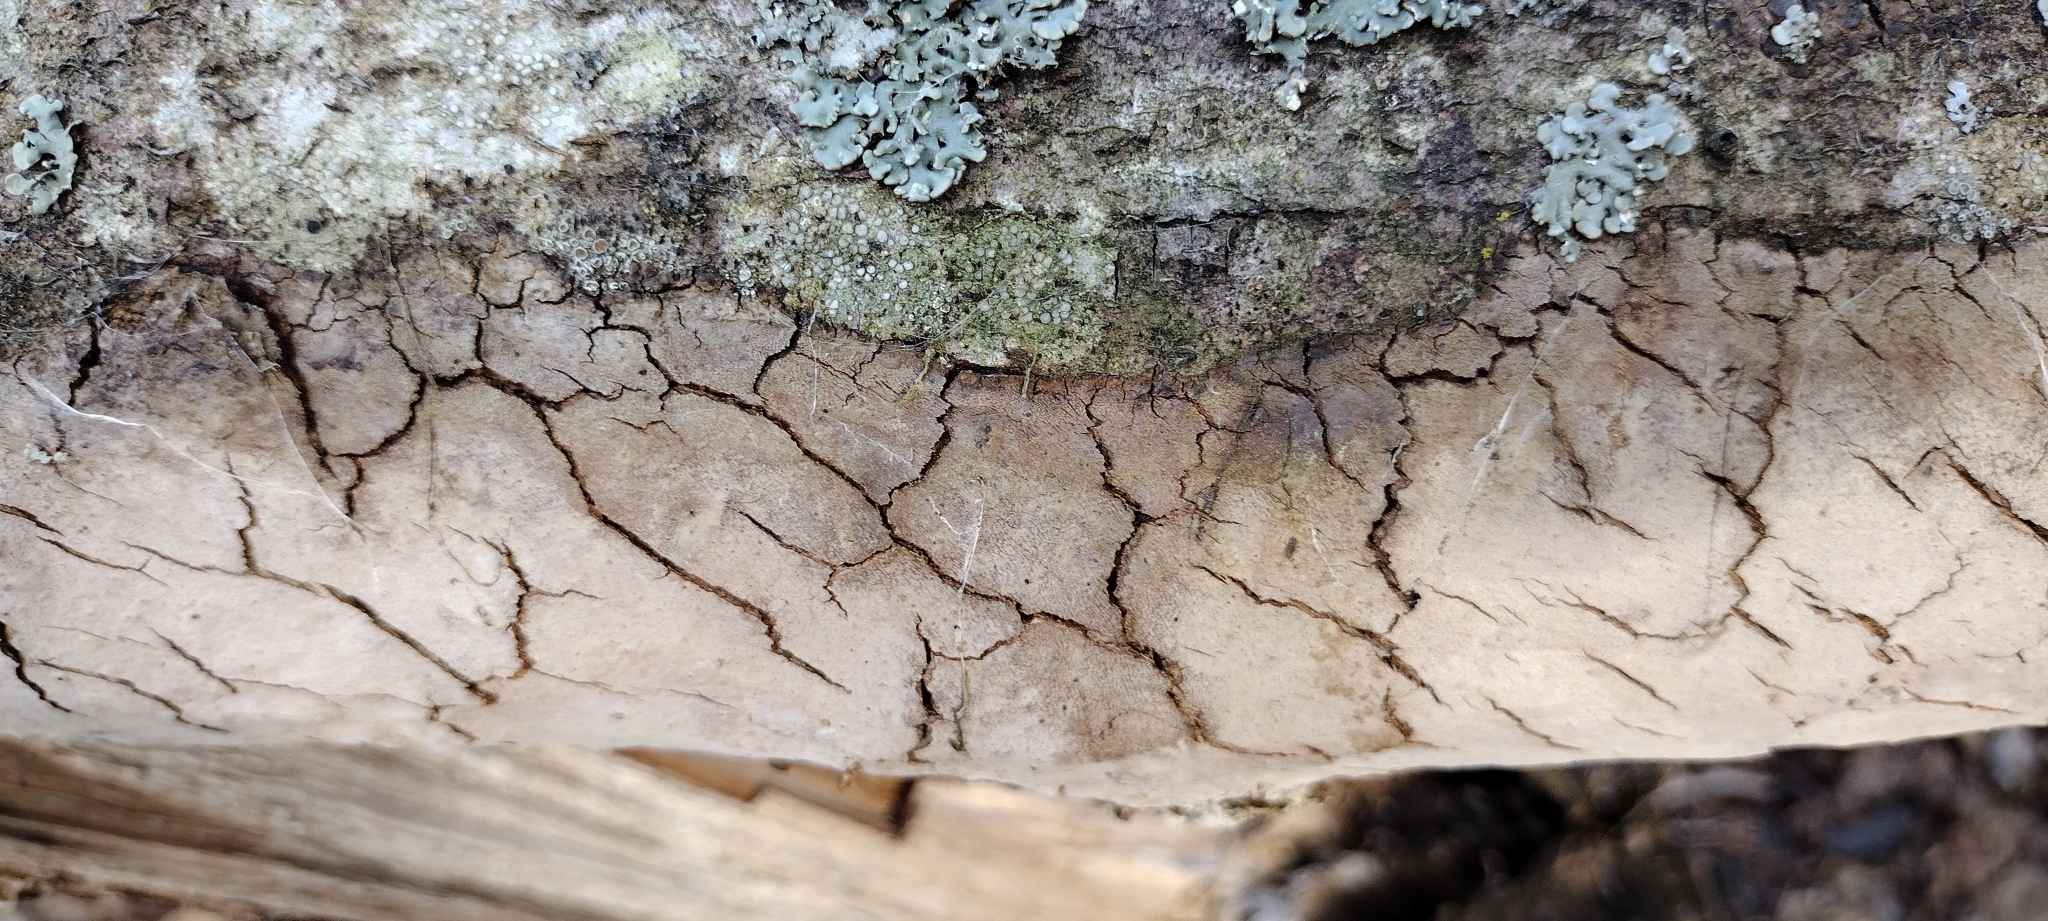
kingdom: Fungi
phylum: Basidiomycota
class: Agaricomycetes
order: Hymenochaetales
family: Hymenochaetaceae
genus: Fomitiporia
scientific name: Fomitiporia punctata
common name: Elbowpatch crust
